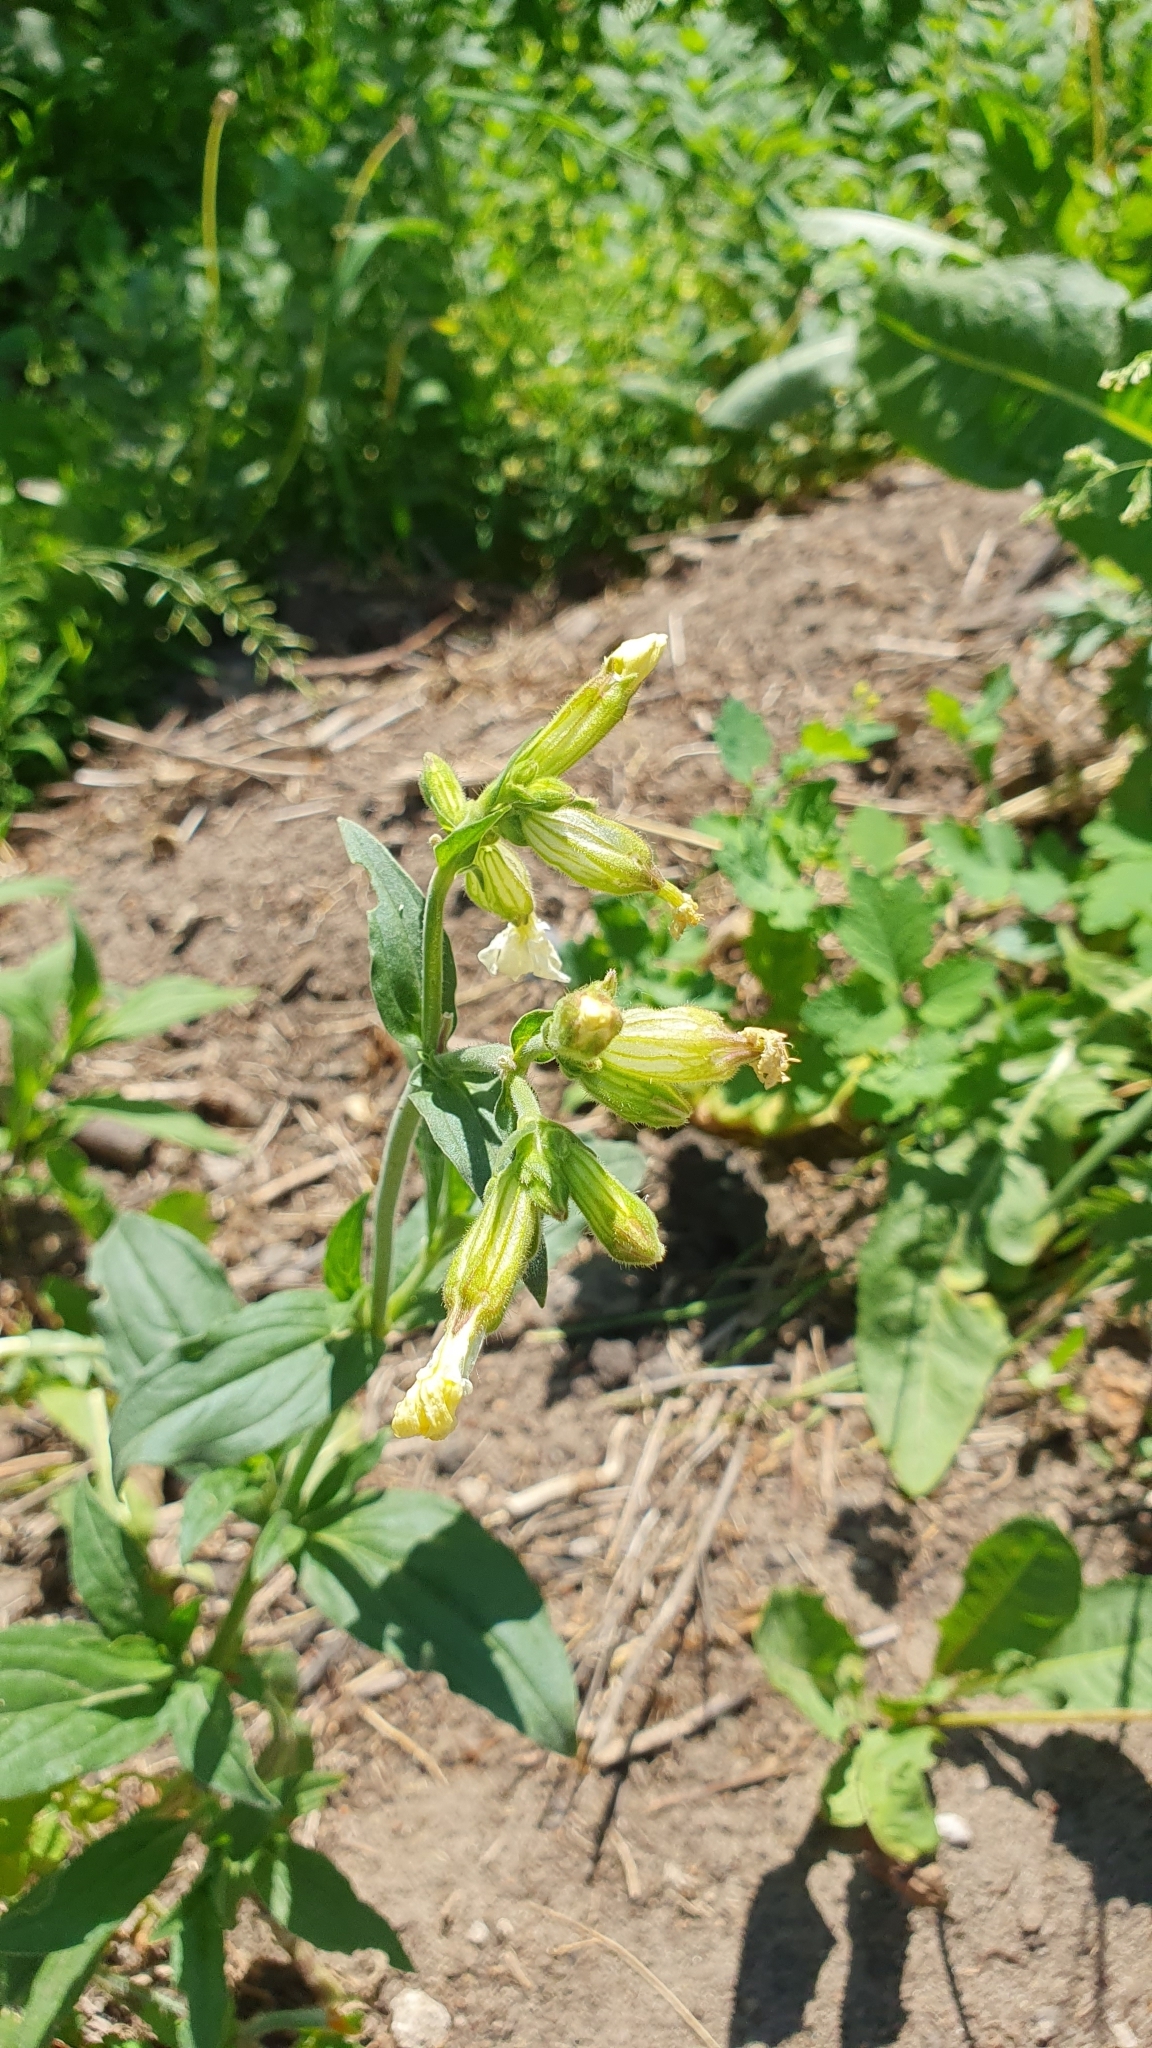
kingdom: Plantae
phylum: Tracheophyta
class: Magnoliopsida
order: Caryophyllales
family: Caryophyllaceae
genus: Silene
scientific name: Silene latifolia
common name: White campion
